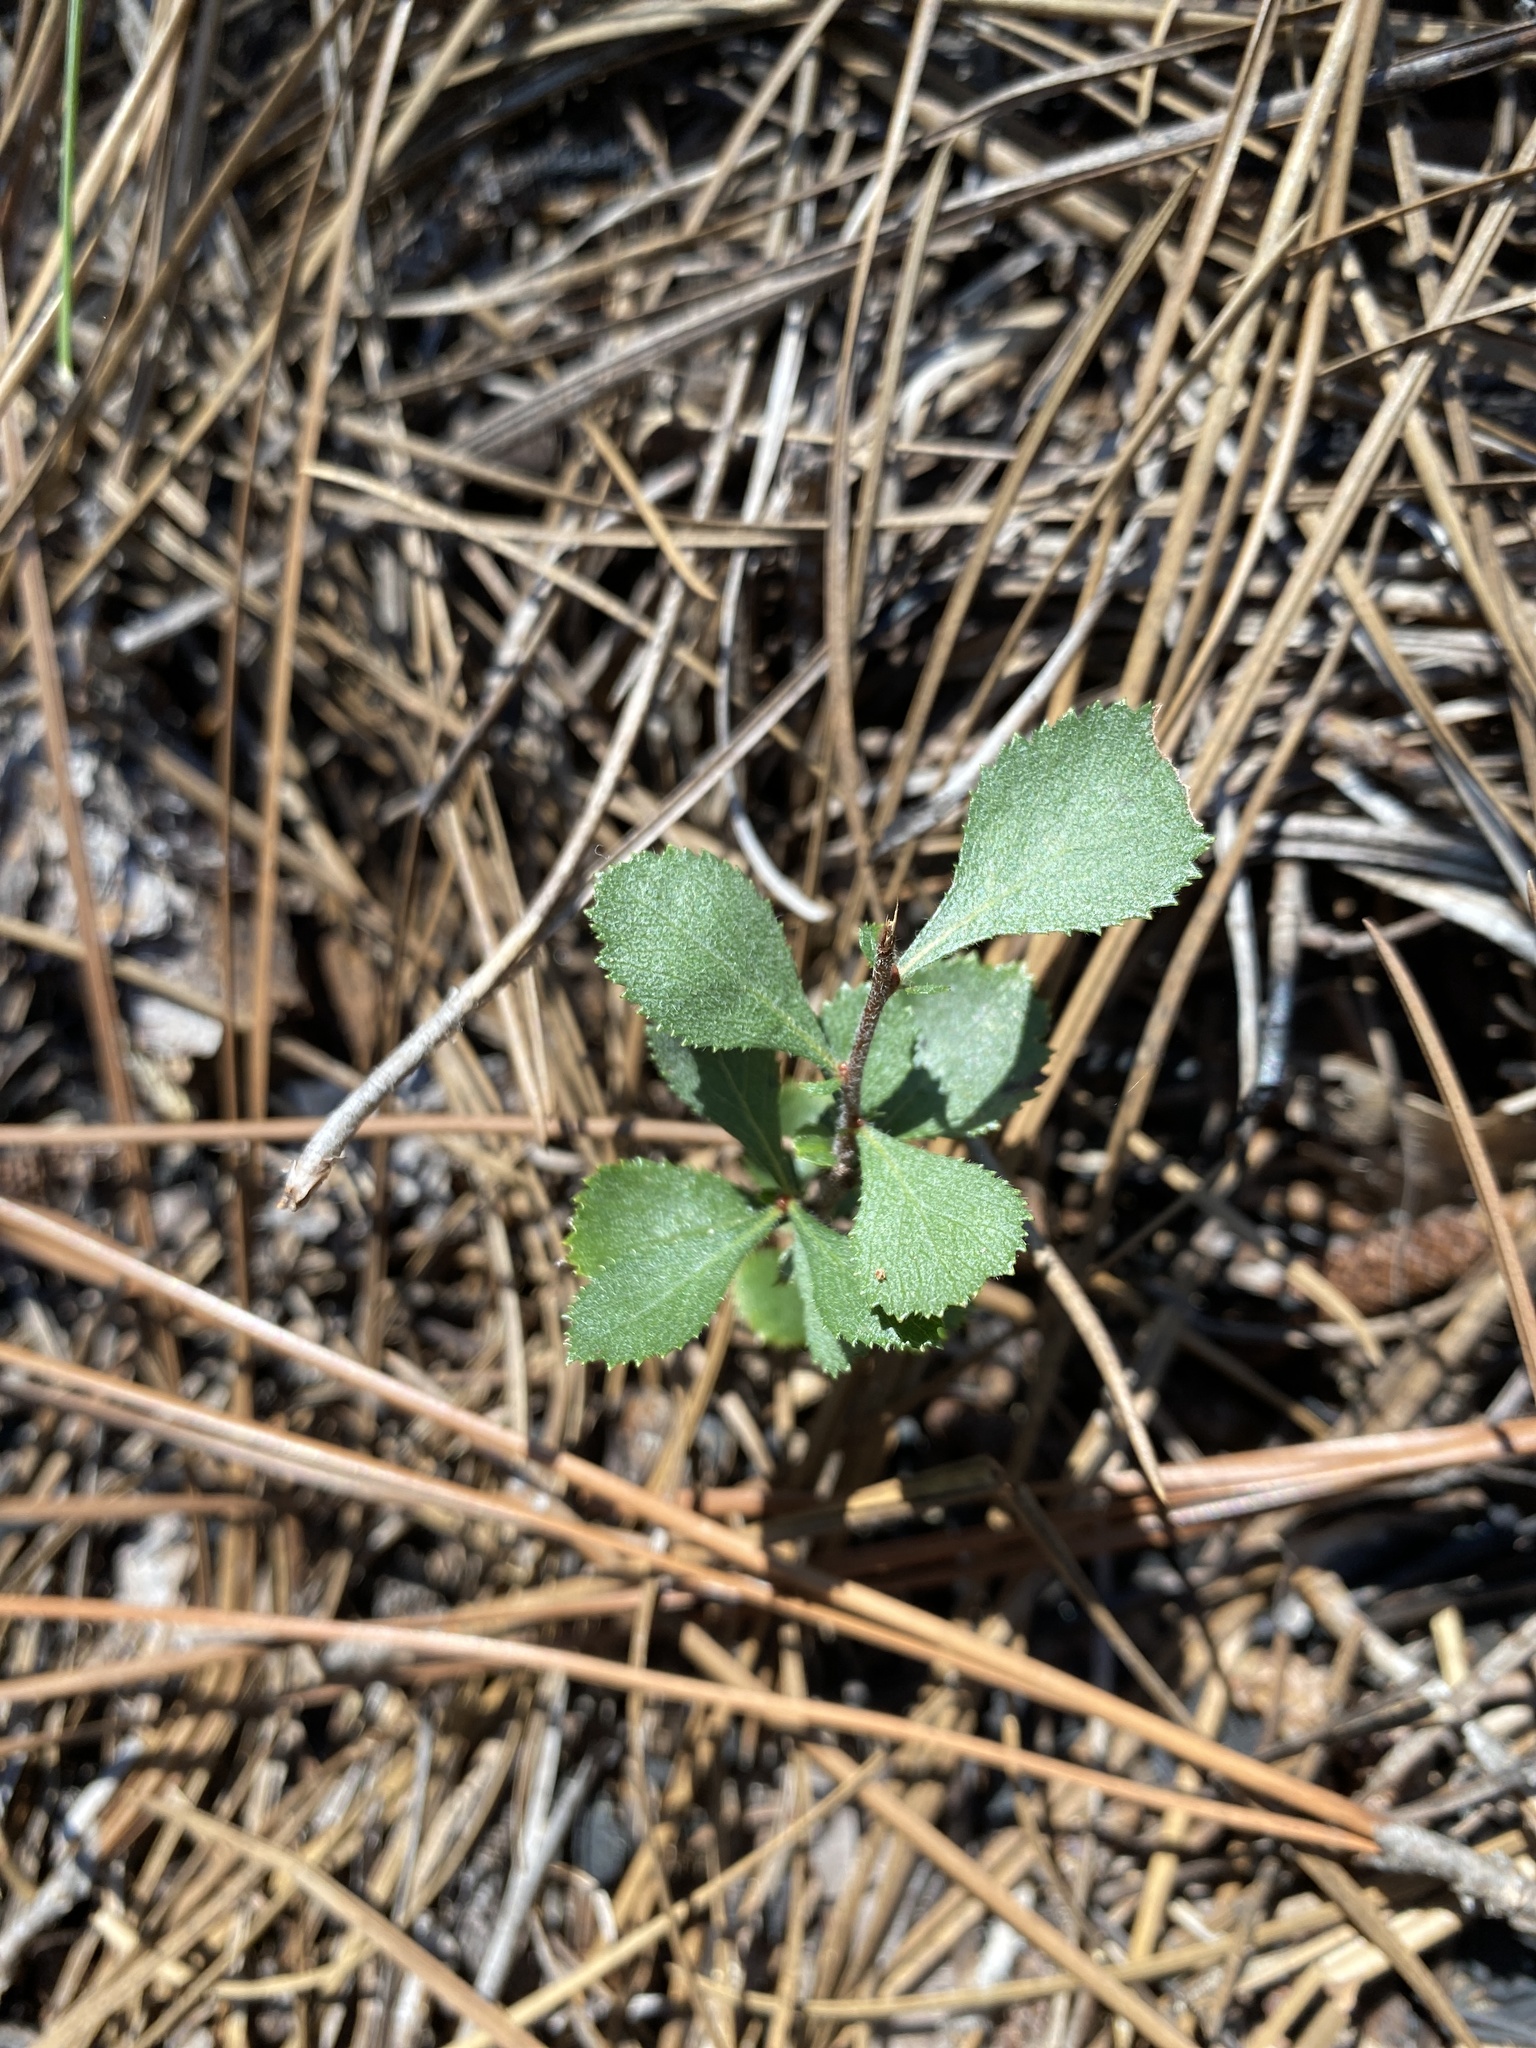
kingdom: Plantae
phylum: Tracheophyta
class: Magnoliopsida
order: Rosales
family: Rosaceae
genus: Crataegus
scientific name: Crataegus munda
